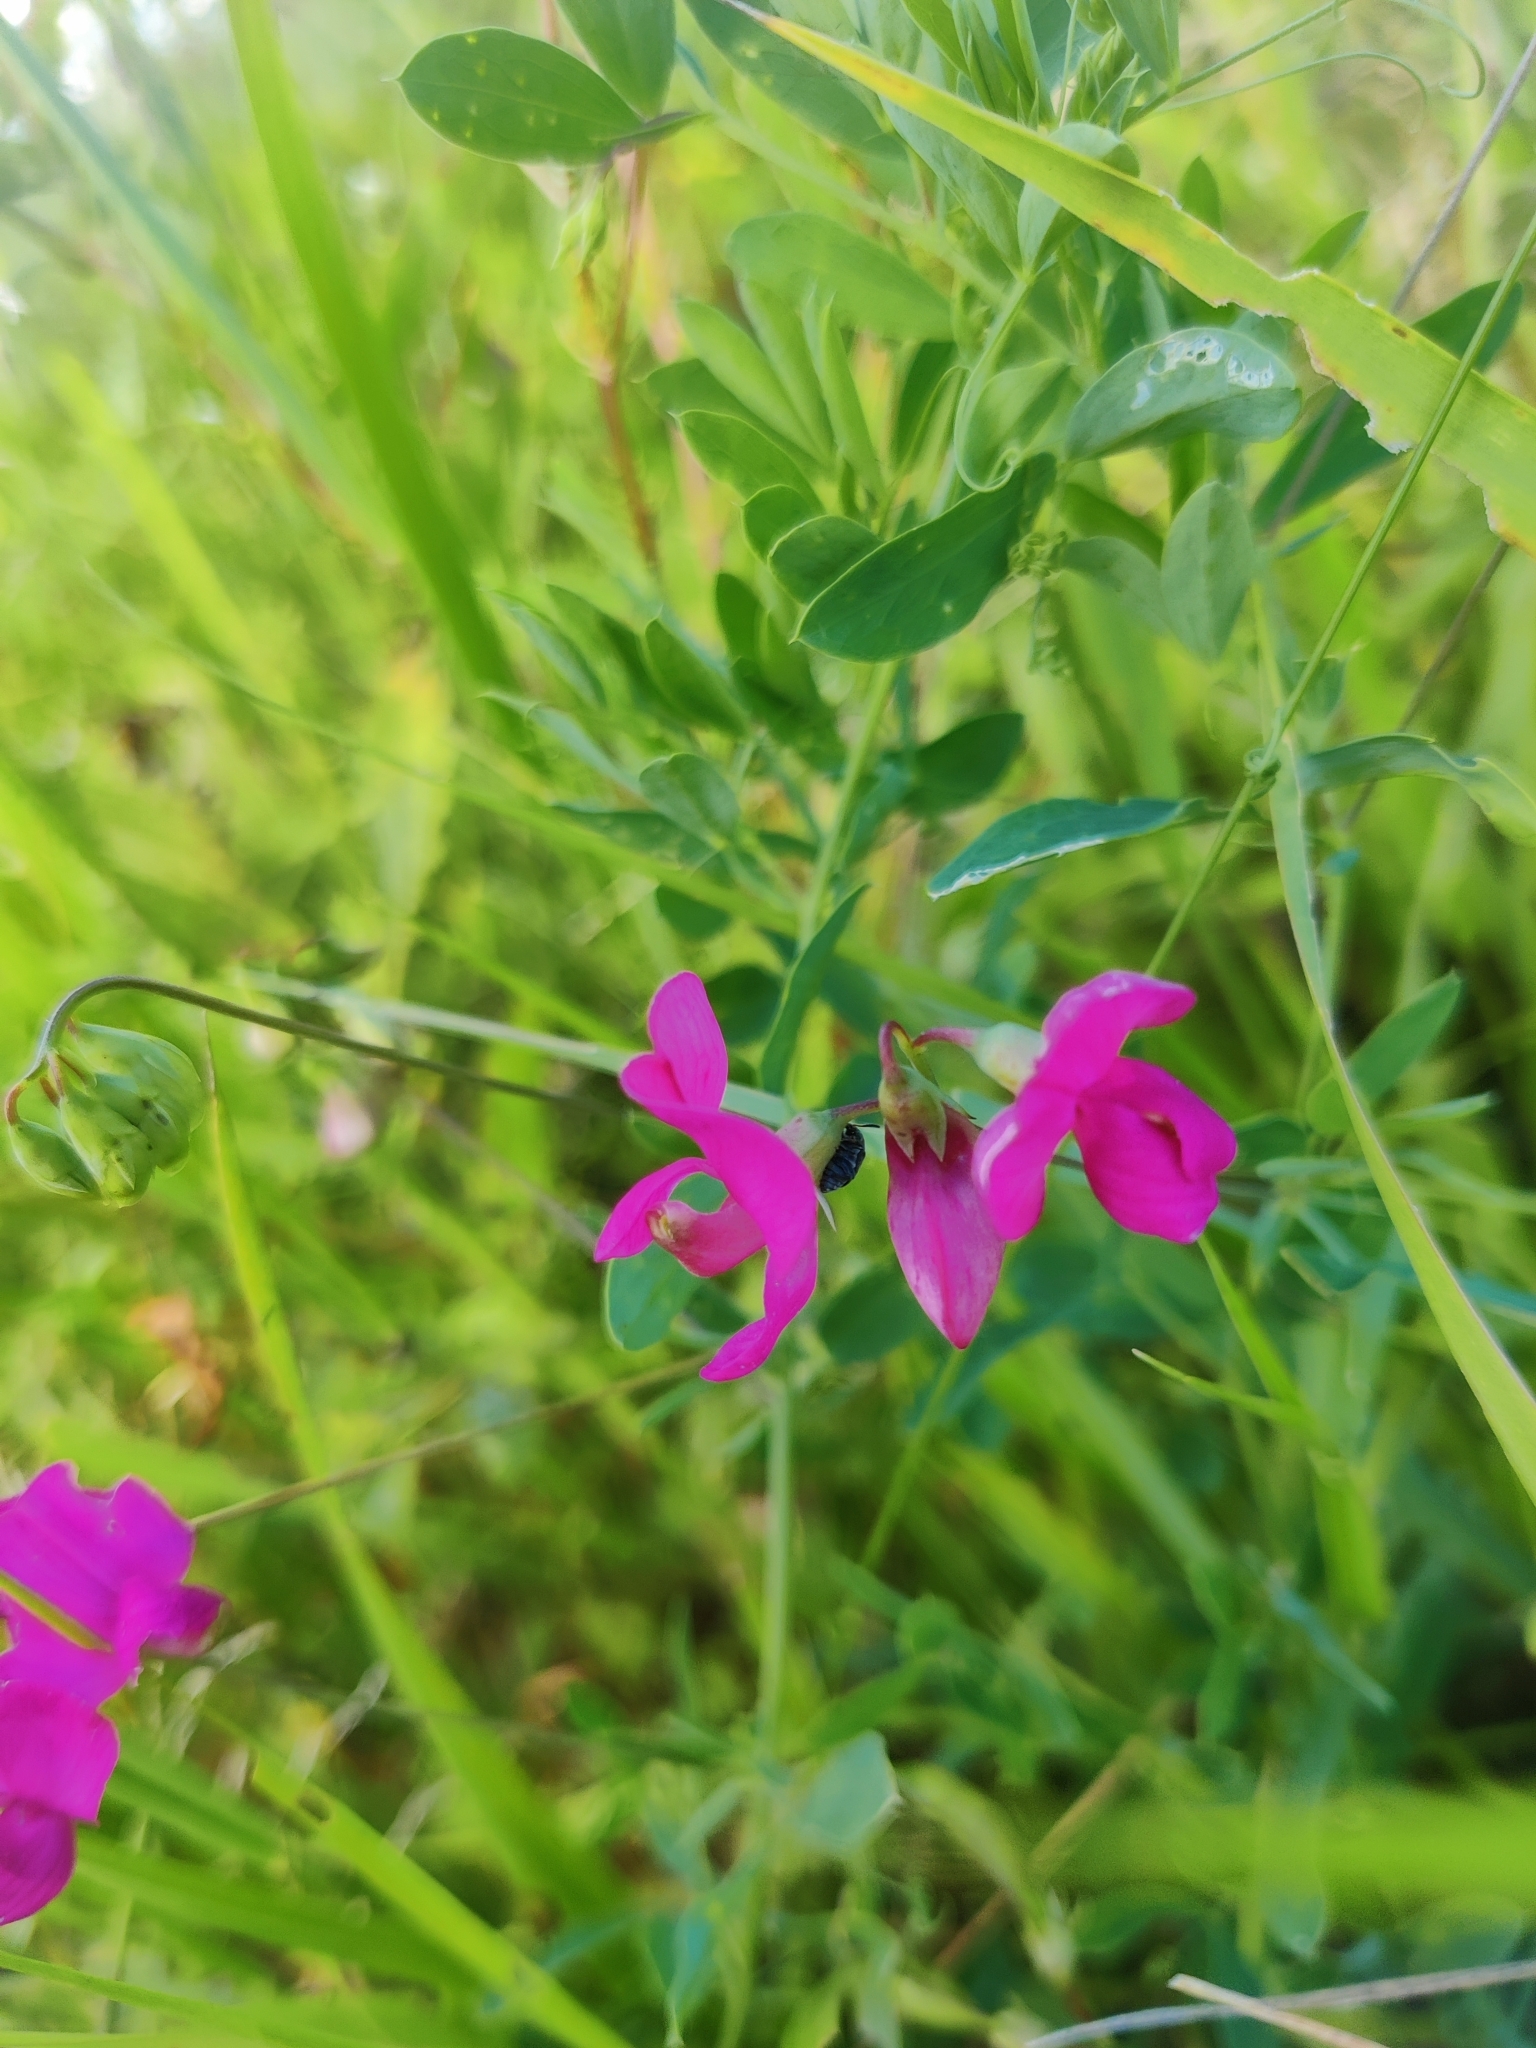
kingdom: Plantae
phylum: Tracheophyta
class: Magnoliopsida
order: Fabales
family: Fabaceae
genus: Lathyrus
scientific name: Lathyrus tuberosus
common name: Tuberous pea
